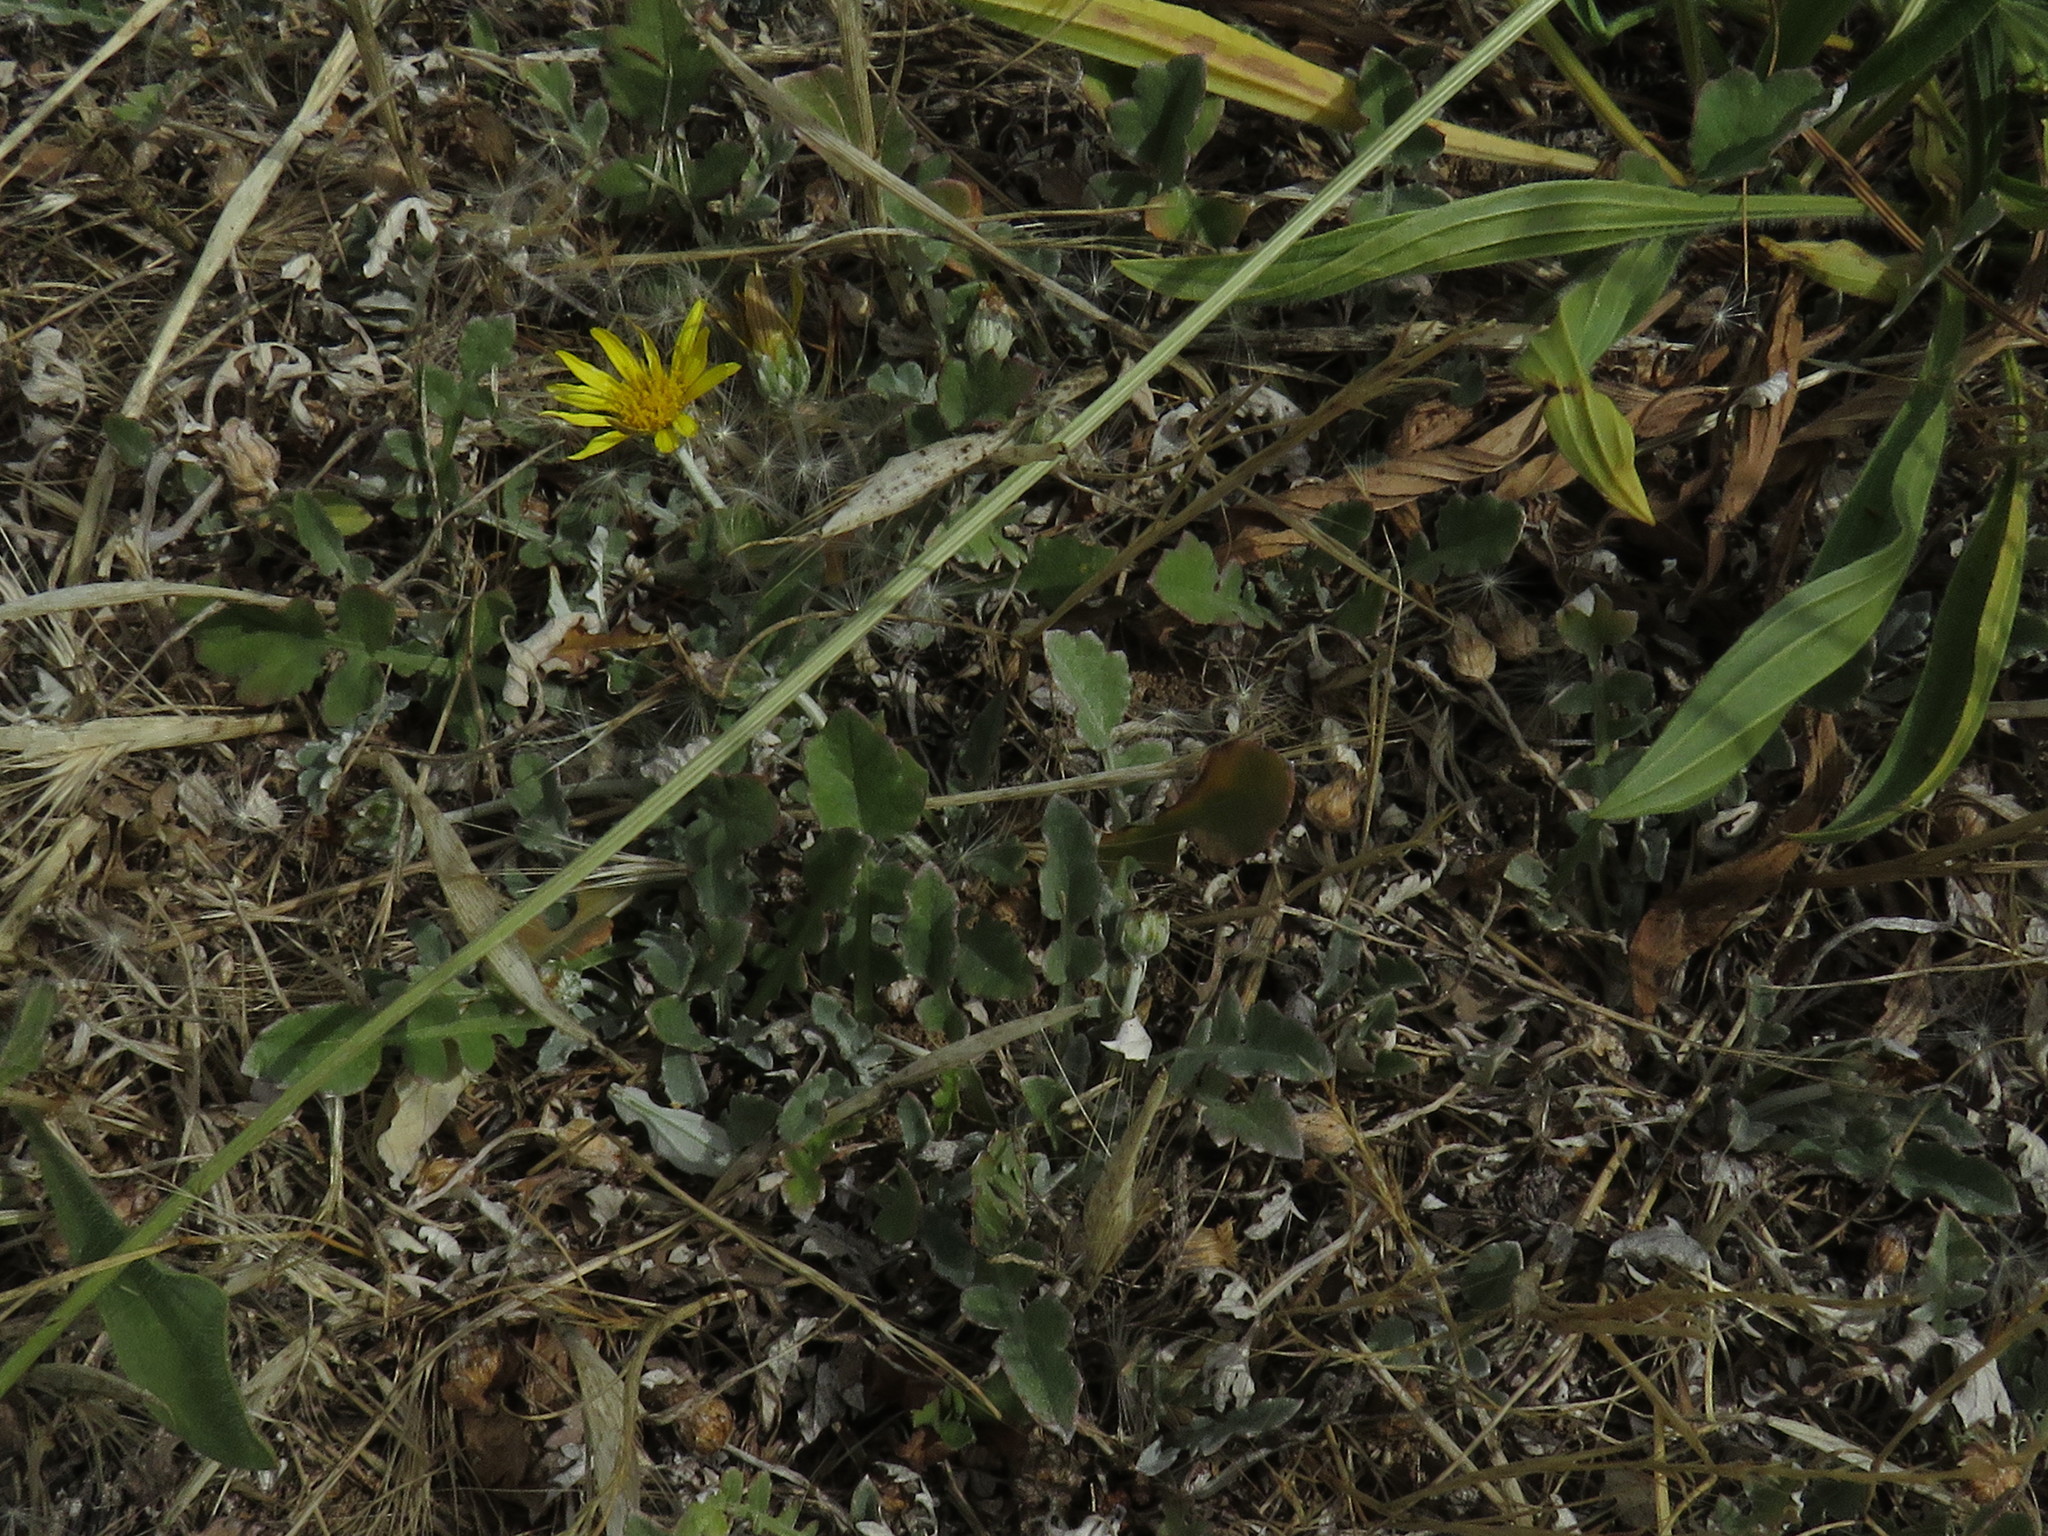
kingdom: Plantae
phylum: Tracheophyta
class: Magnoliopsida
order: Asterales
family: Asteraceae
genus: Arctotheca
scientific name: Arctotheca prostrata
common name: Capeweed
